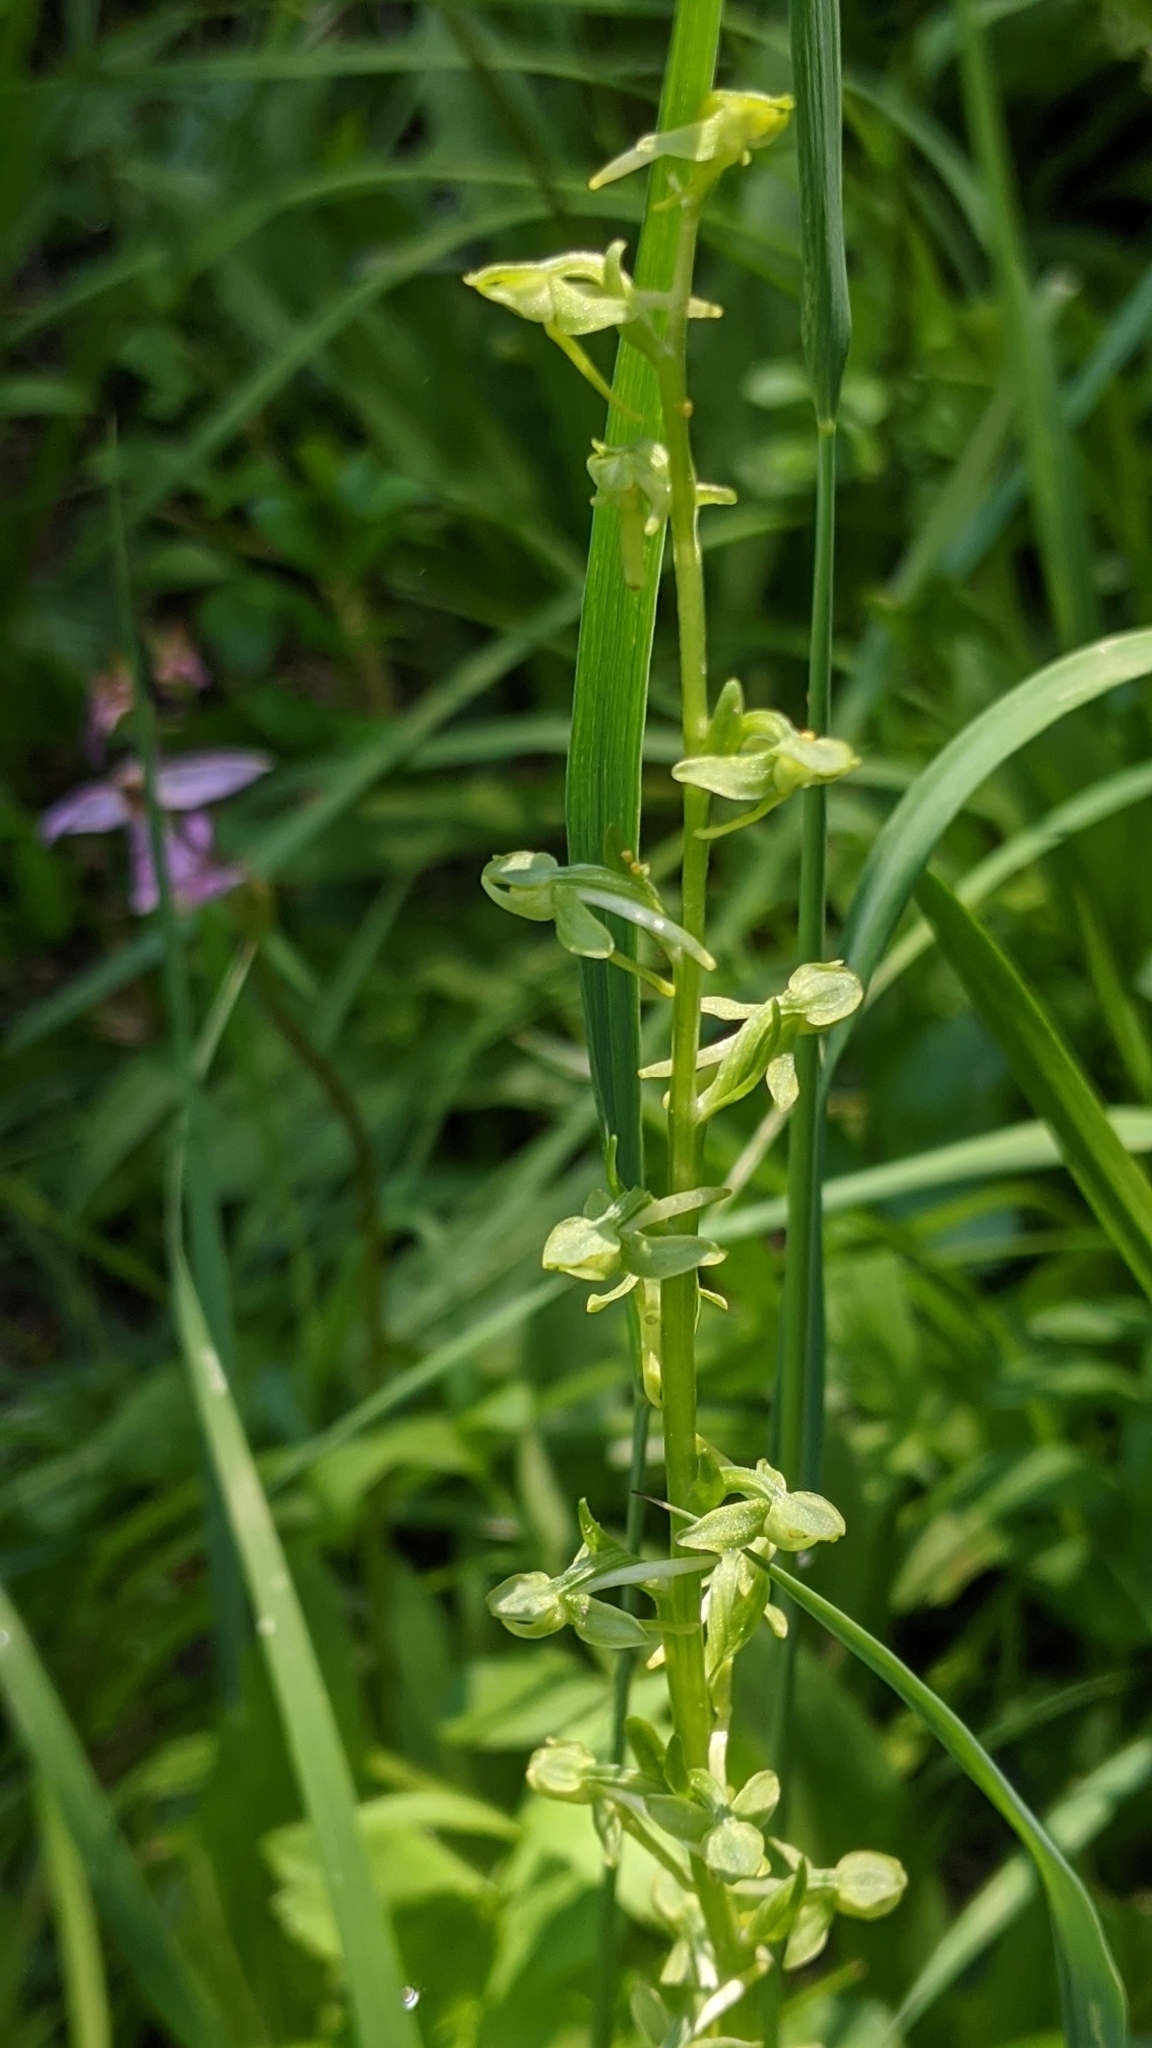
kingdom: Plantae
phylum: Tracheophyta
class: Liliopsida
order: Asparagales
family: Orchidaceae
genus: Platanthera
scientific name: Platanthera sparsiflora
